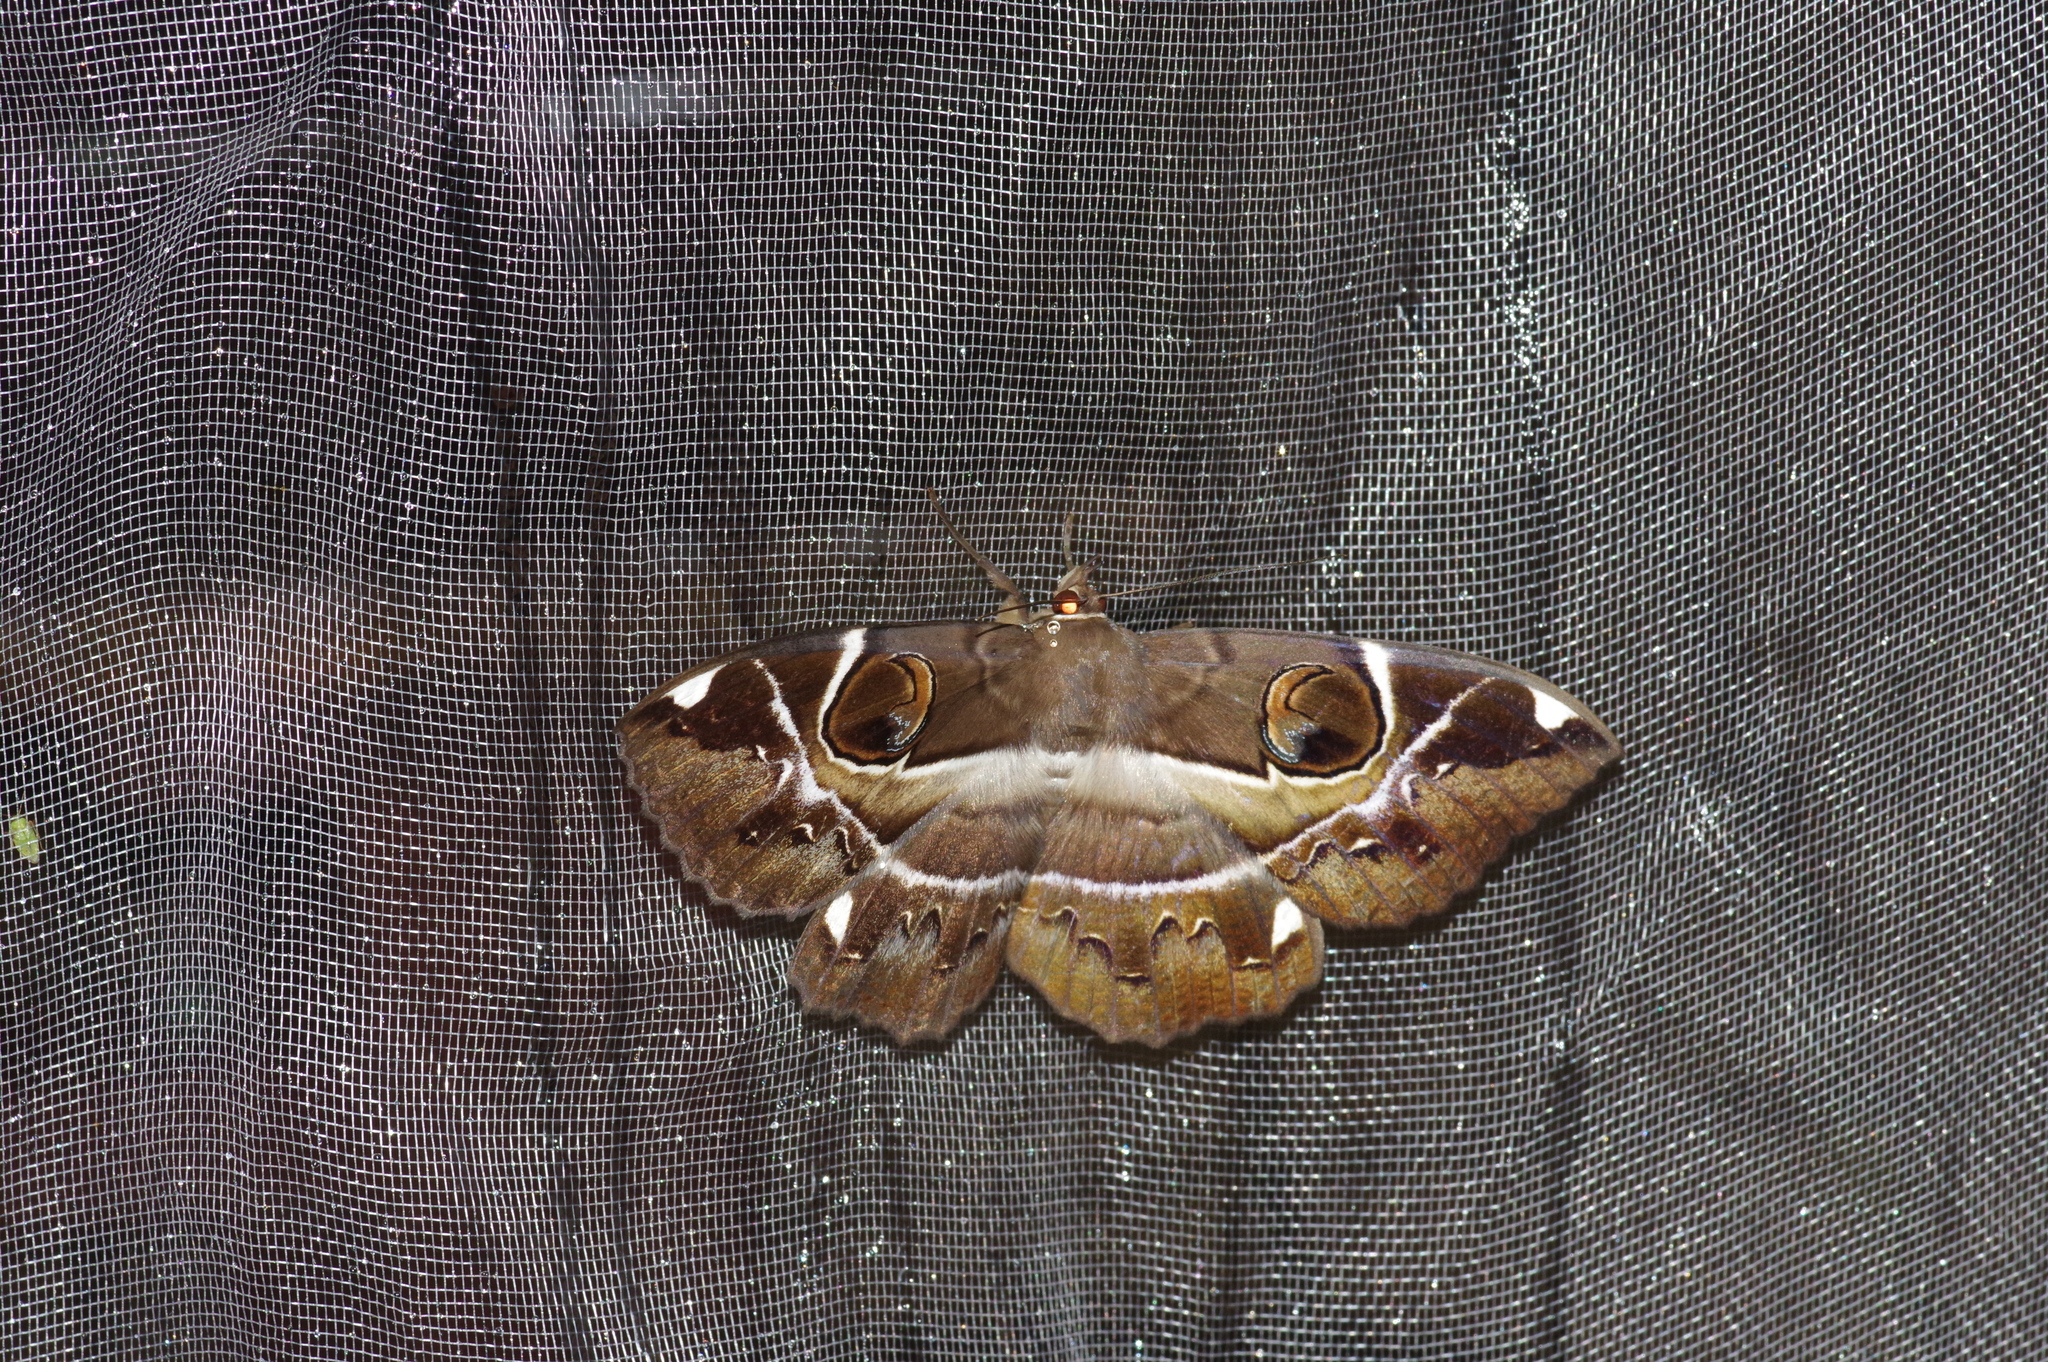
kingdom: Animalia
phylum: Arthropoda
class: Insecta
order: Lepidoptera
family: Erebidae
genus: Erebus
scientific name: Erebus ephesperis
